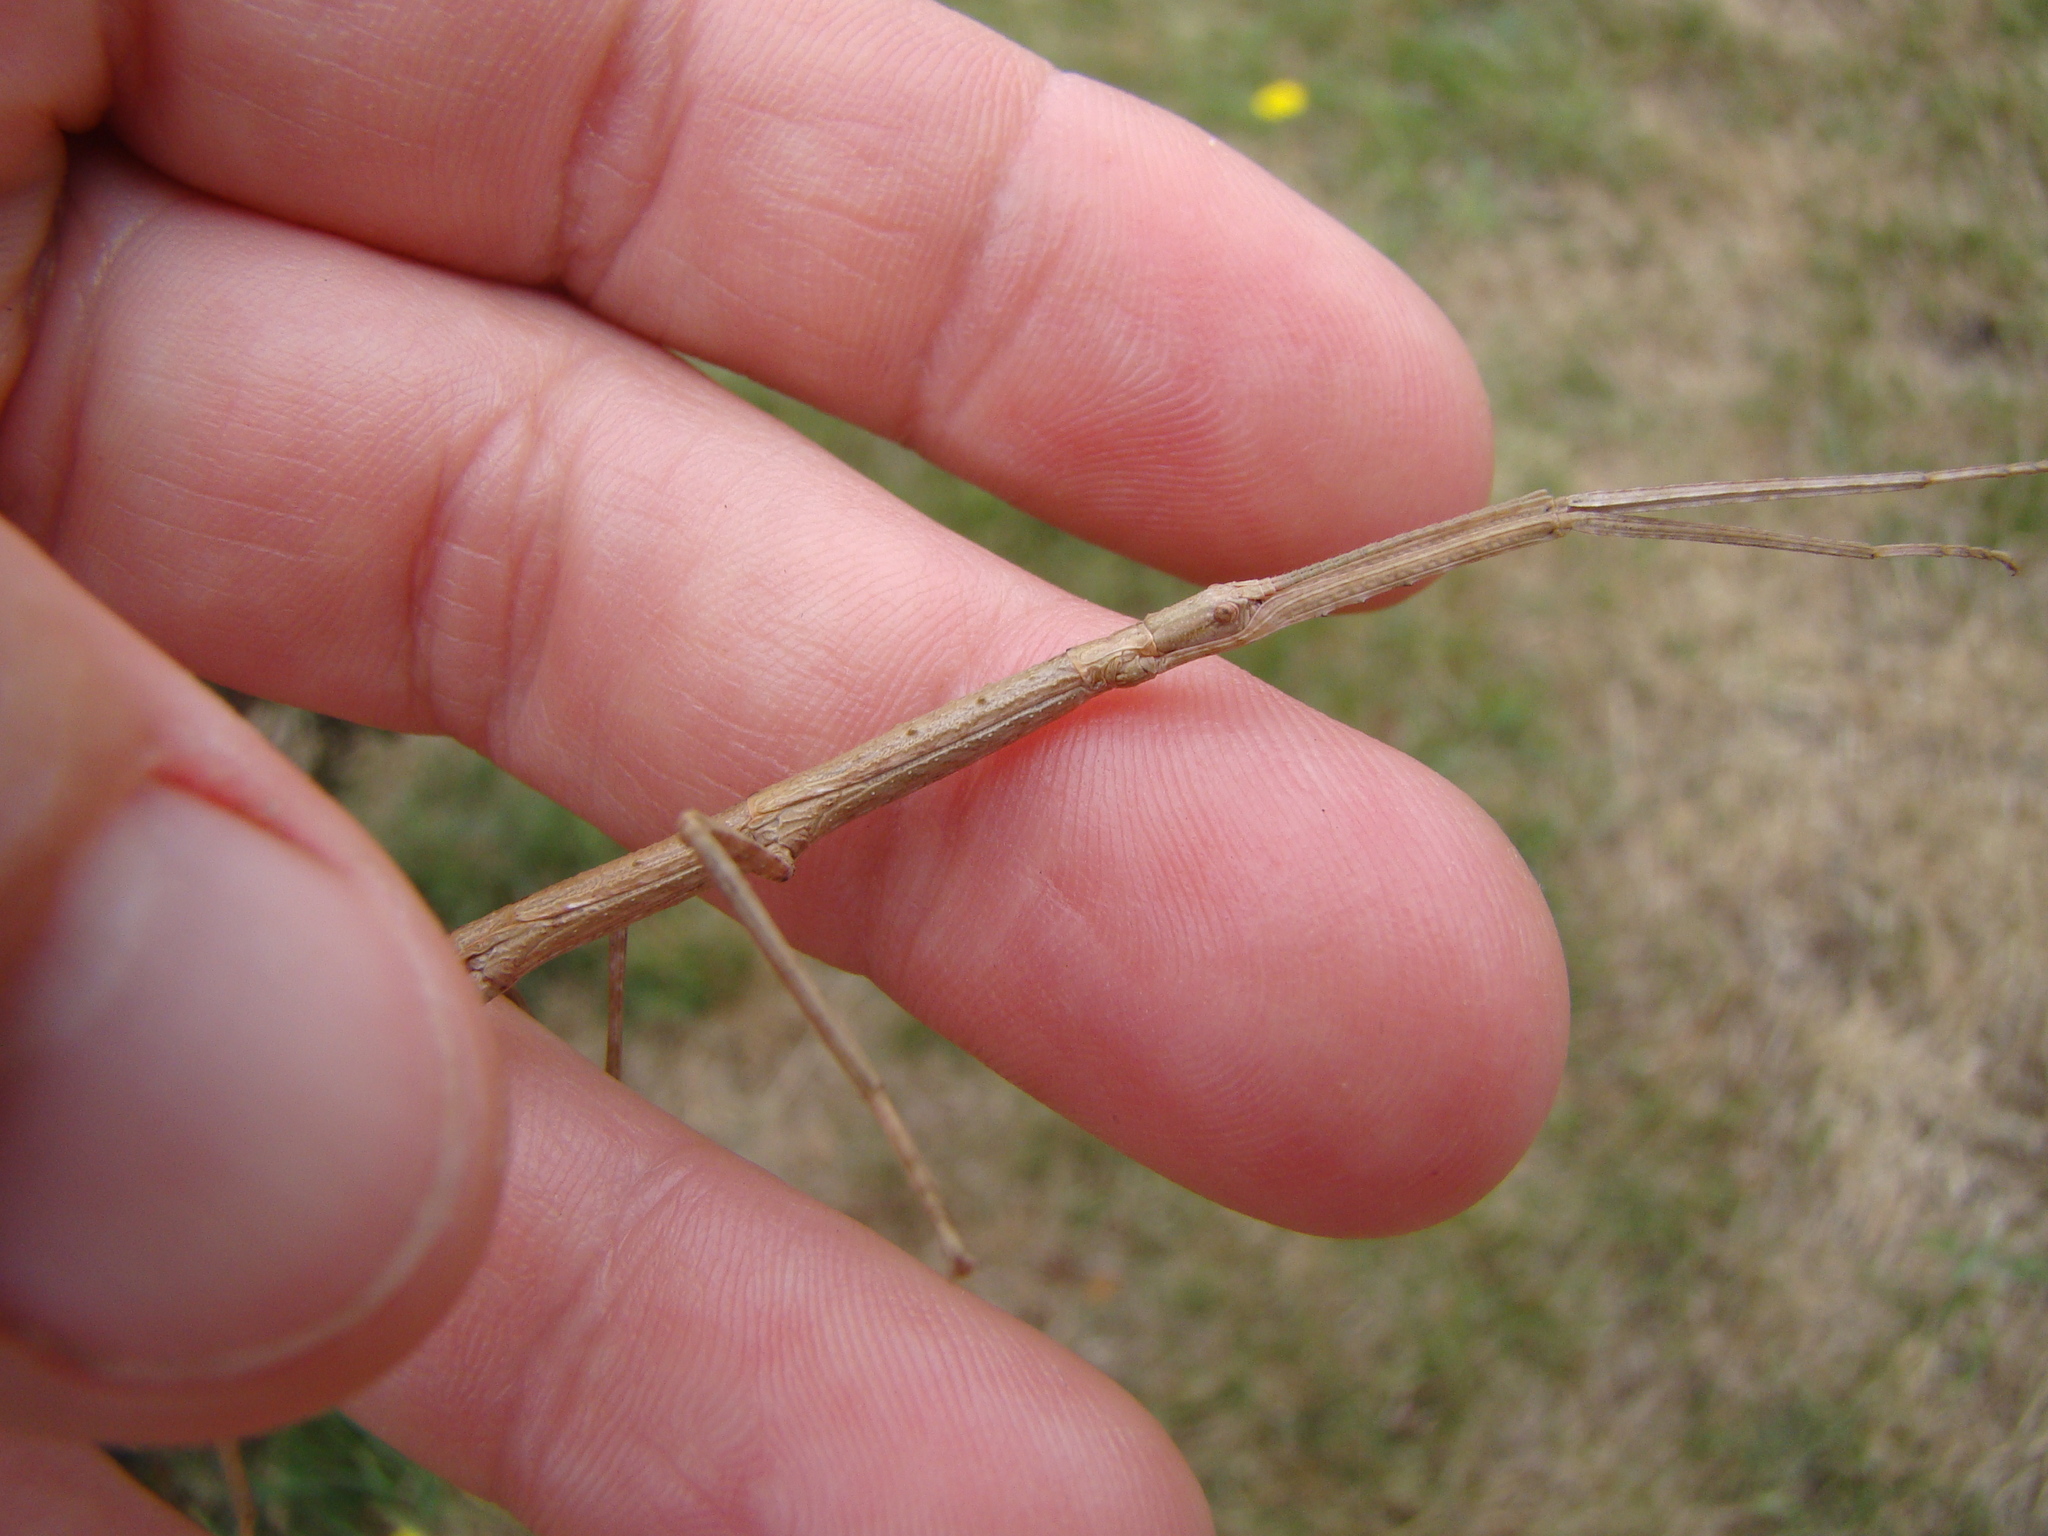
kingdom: Animalia
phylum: Arthropoda
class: Insecta
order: Phasmida
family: Phasmatidae
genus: Clitarchus
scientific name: Clitarchus hookeri
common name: Smooth stick insect
